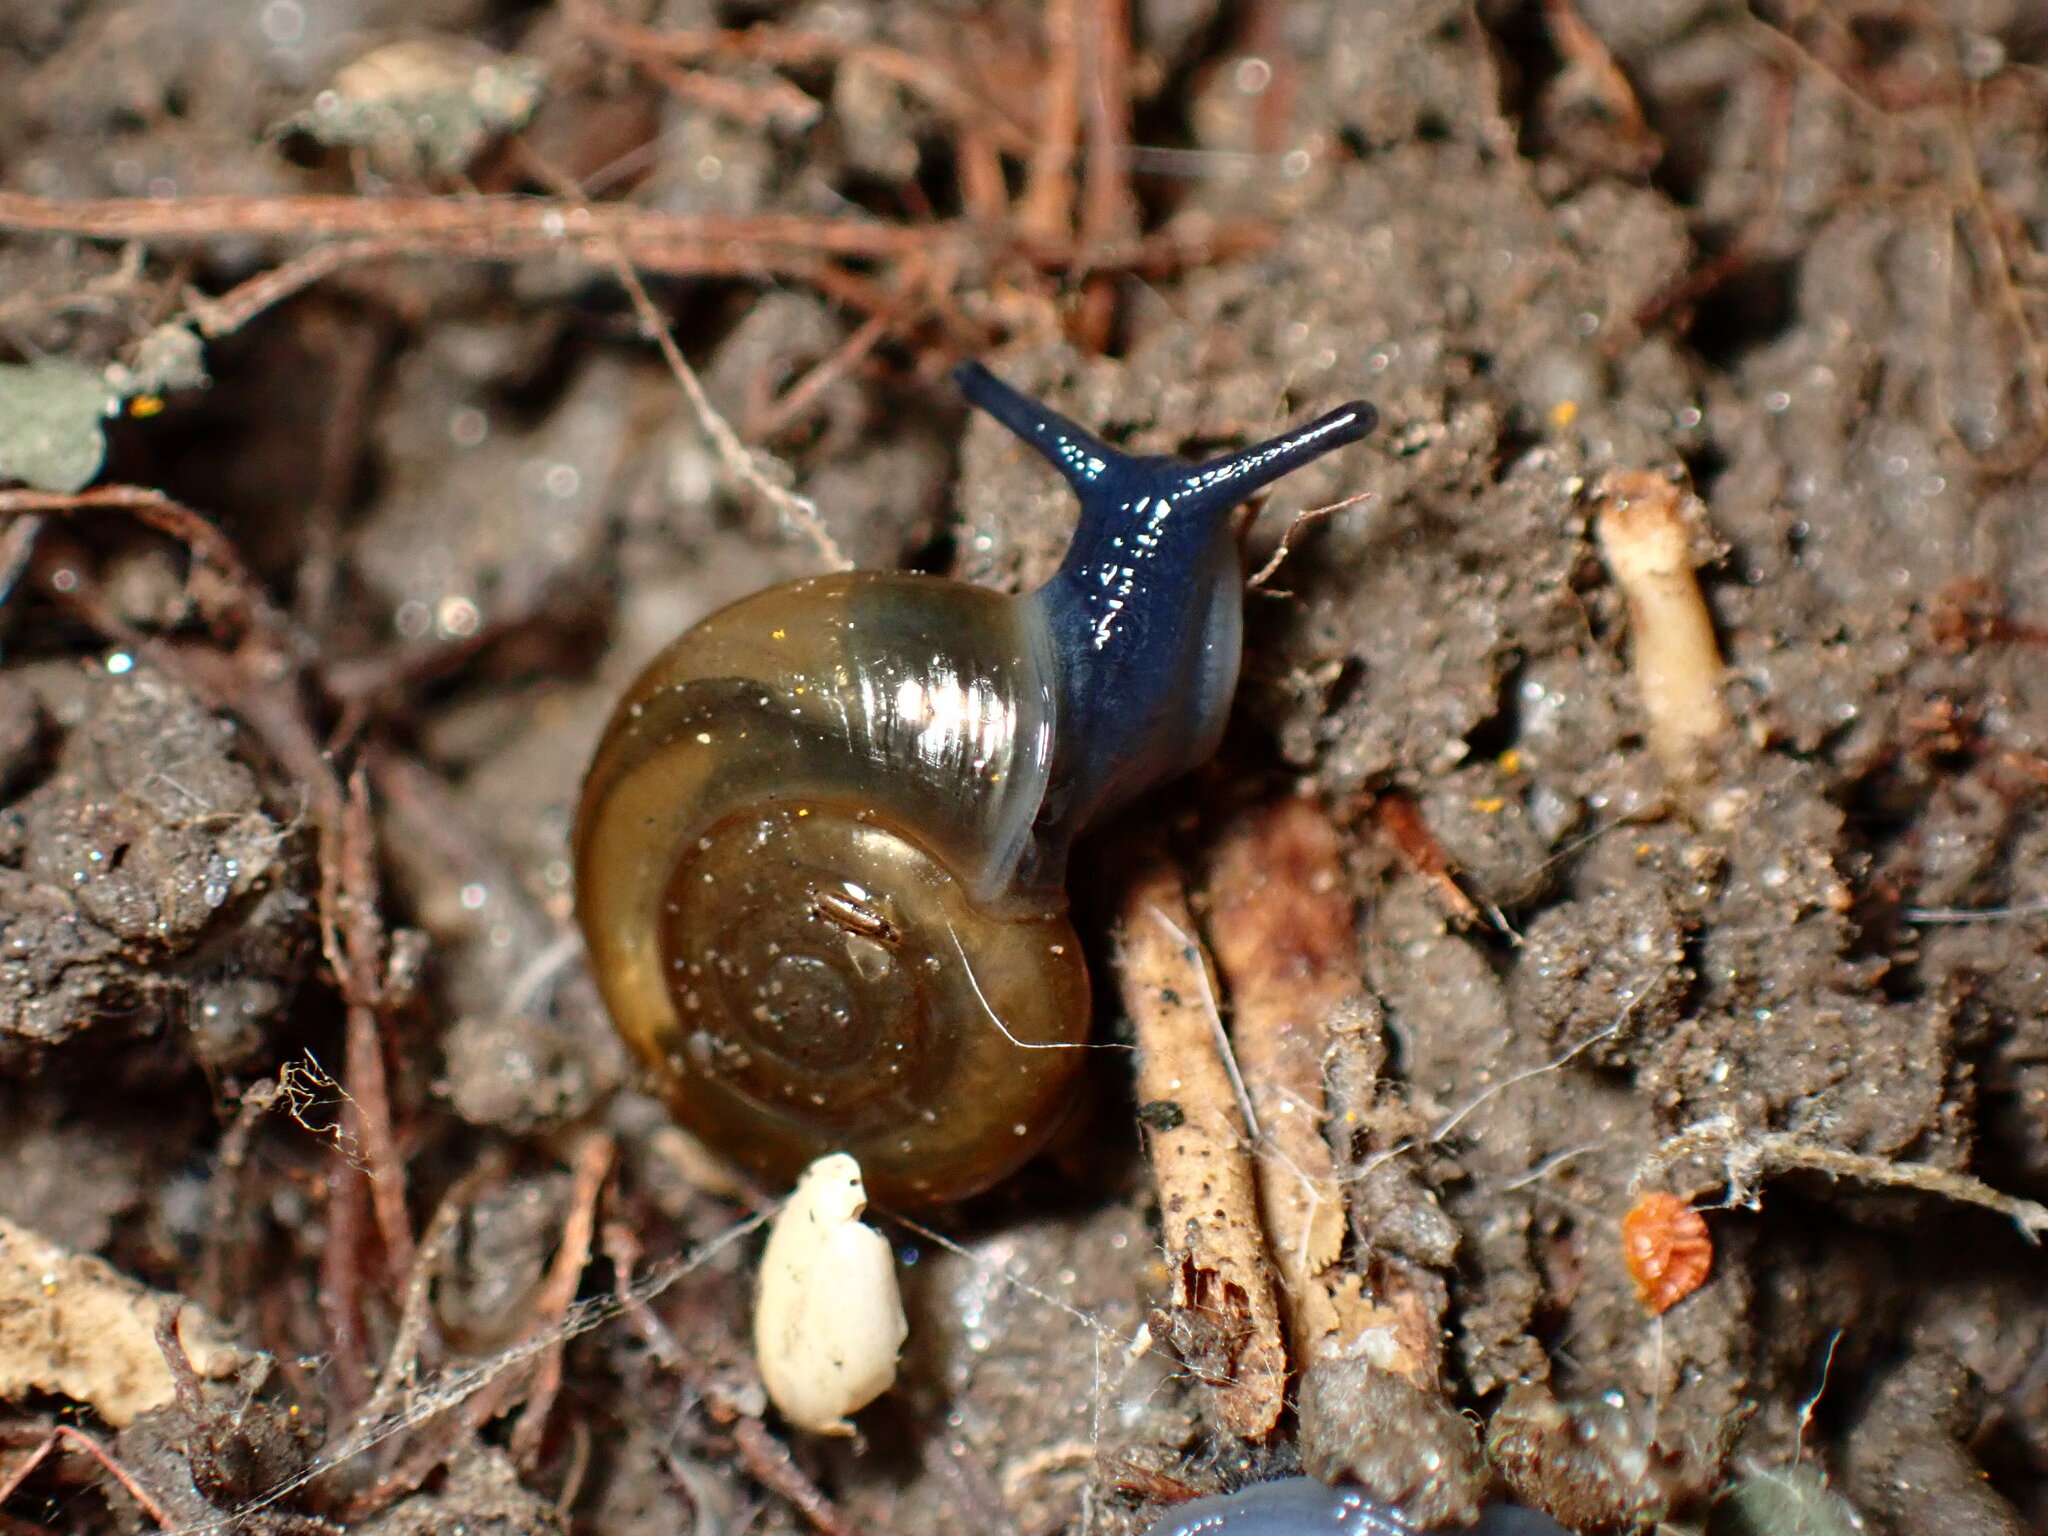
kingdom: Animalia
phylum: Mollusca
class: Gastropoda
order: Stylommatophora
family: Oxychilidae
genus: Oxychilus
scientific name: Oxychilus
